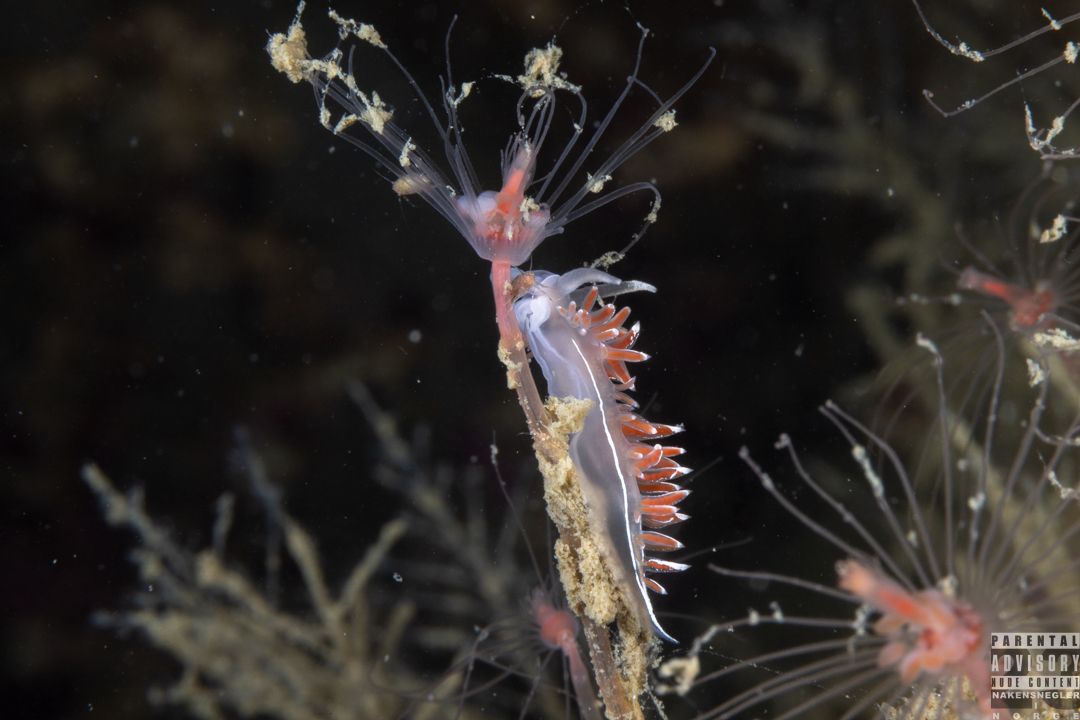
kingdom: Animalia
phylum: Mollusca
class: Gastropoda
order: Nudibranchia
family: Coryphellidae
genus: Coryphella
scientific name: Coryphella lineata
